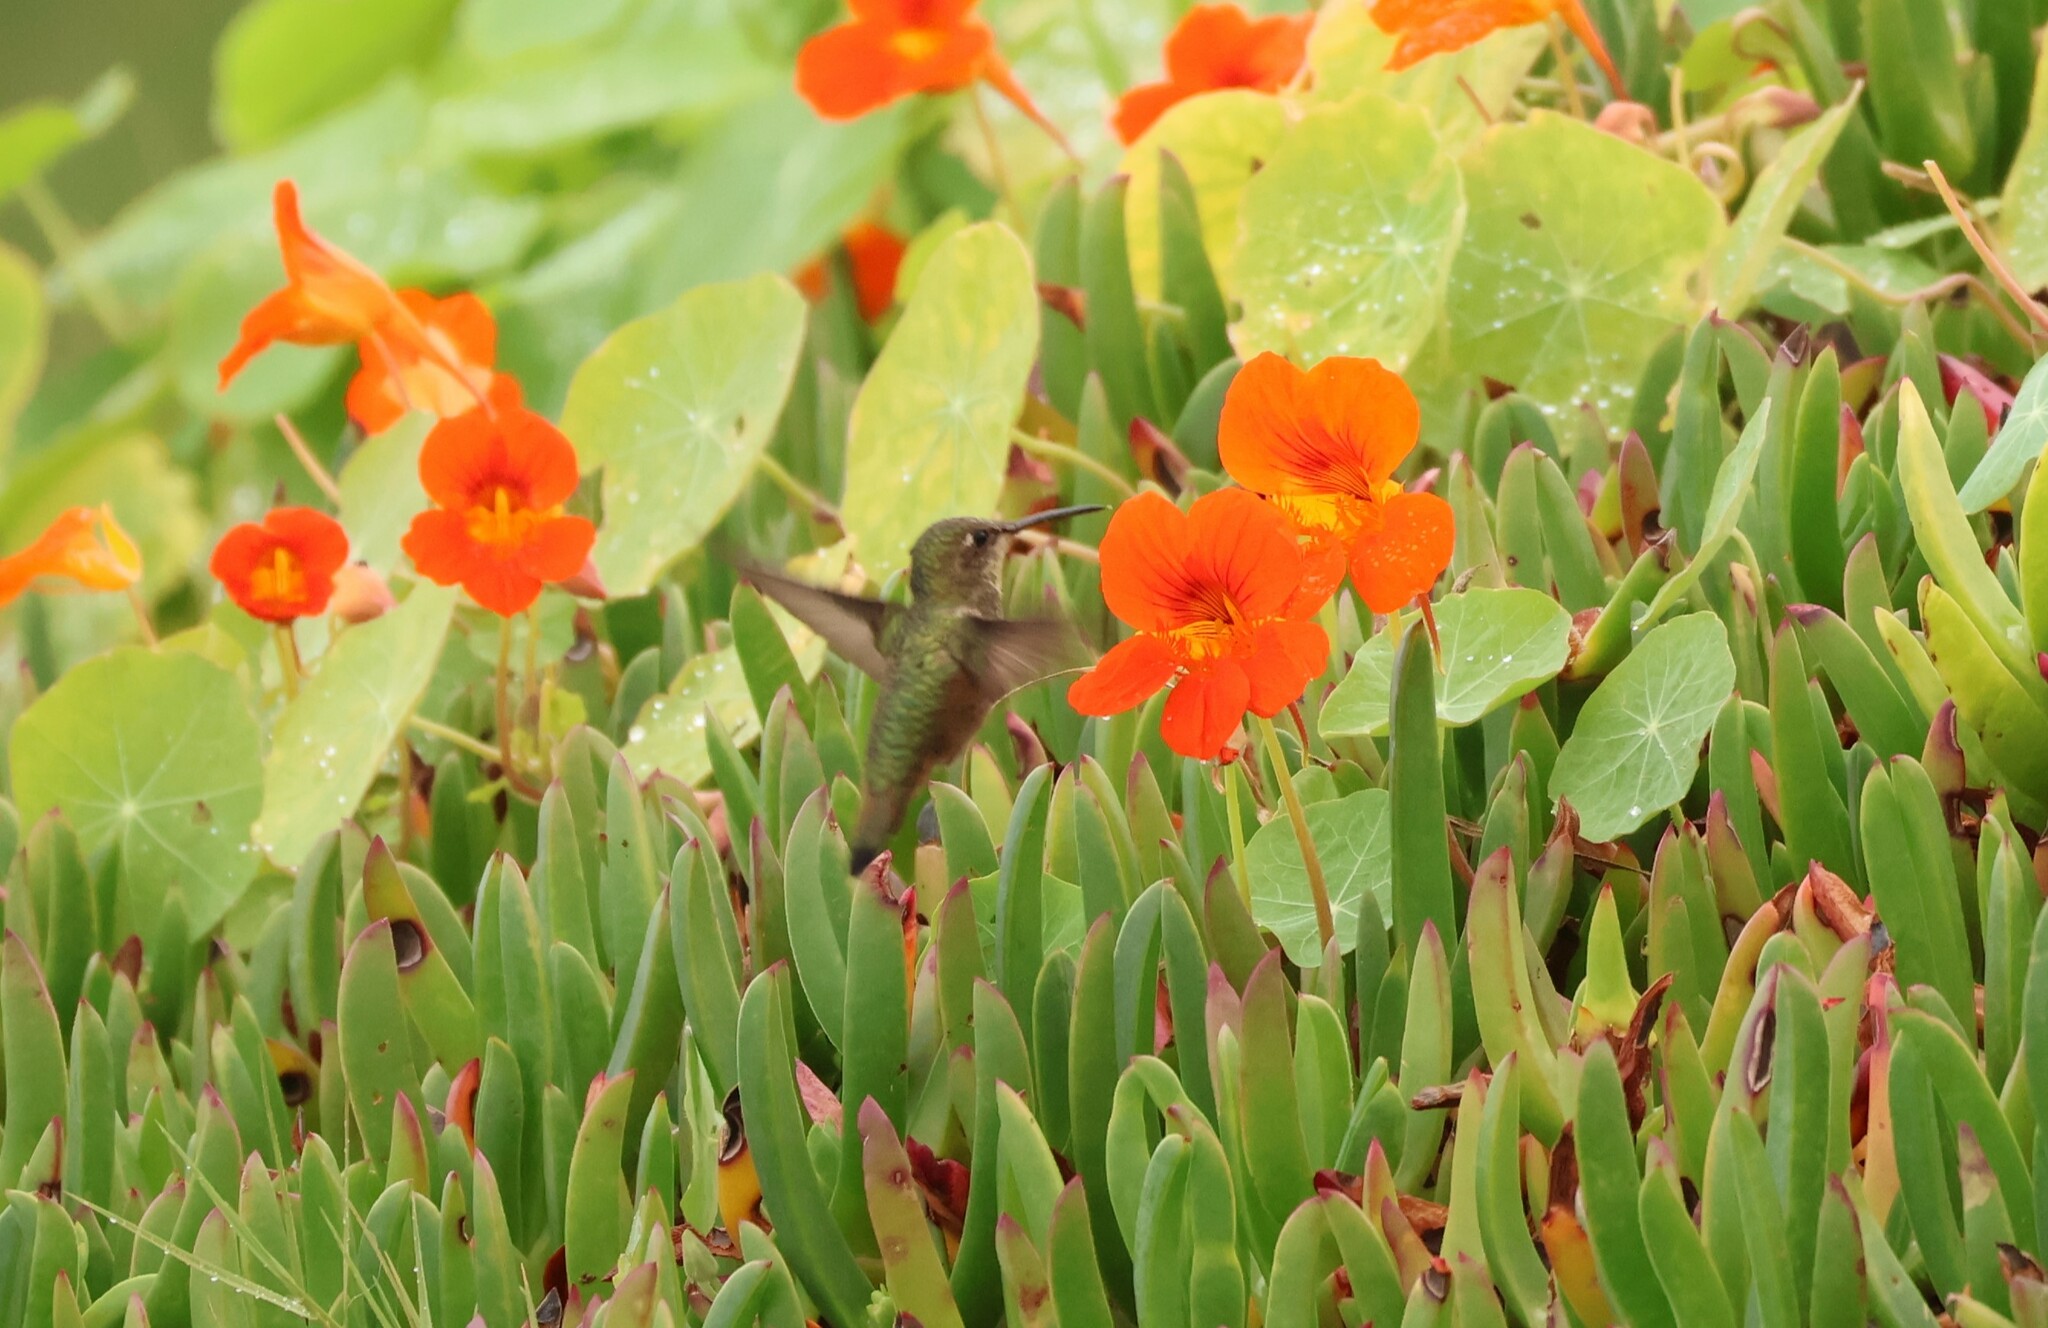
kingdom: Animalia
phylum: Chordata
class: Aves
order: Apodiformes
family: Trochilidae
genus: Selasphorus
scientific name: Selasphorus sasin
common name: Allen's hummingbird
